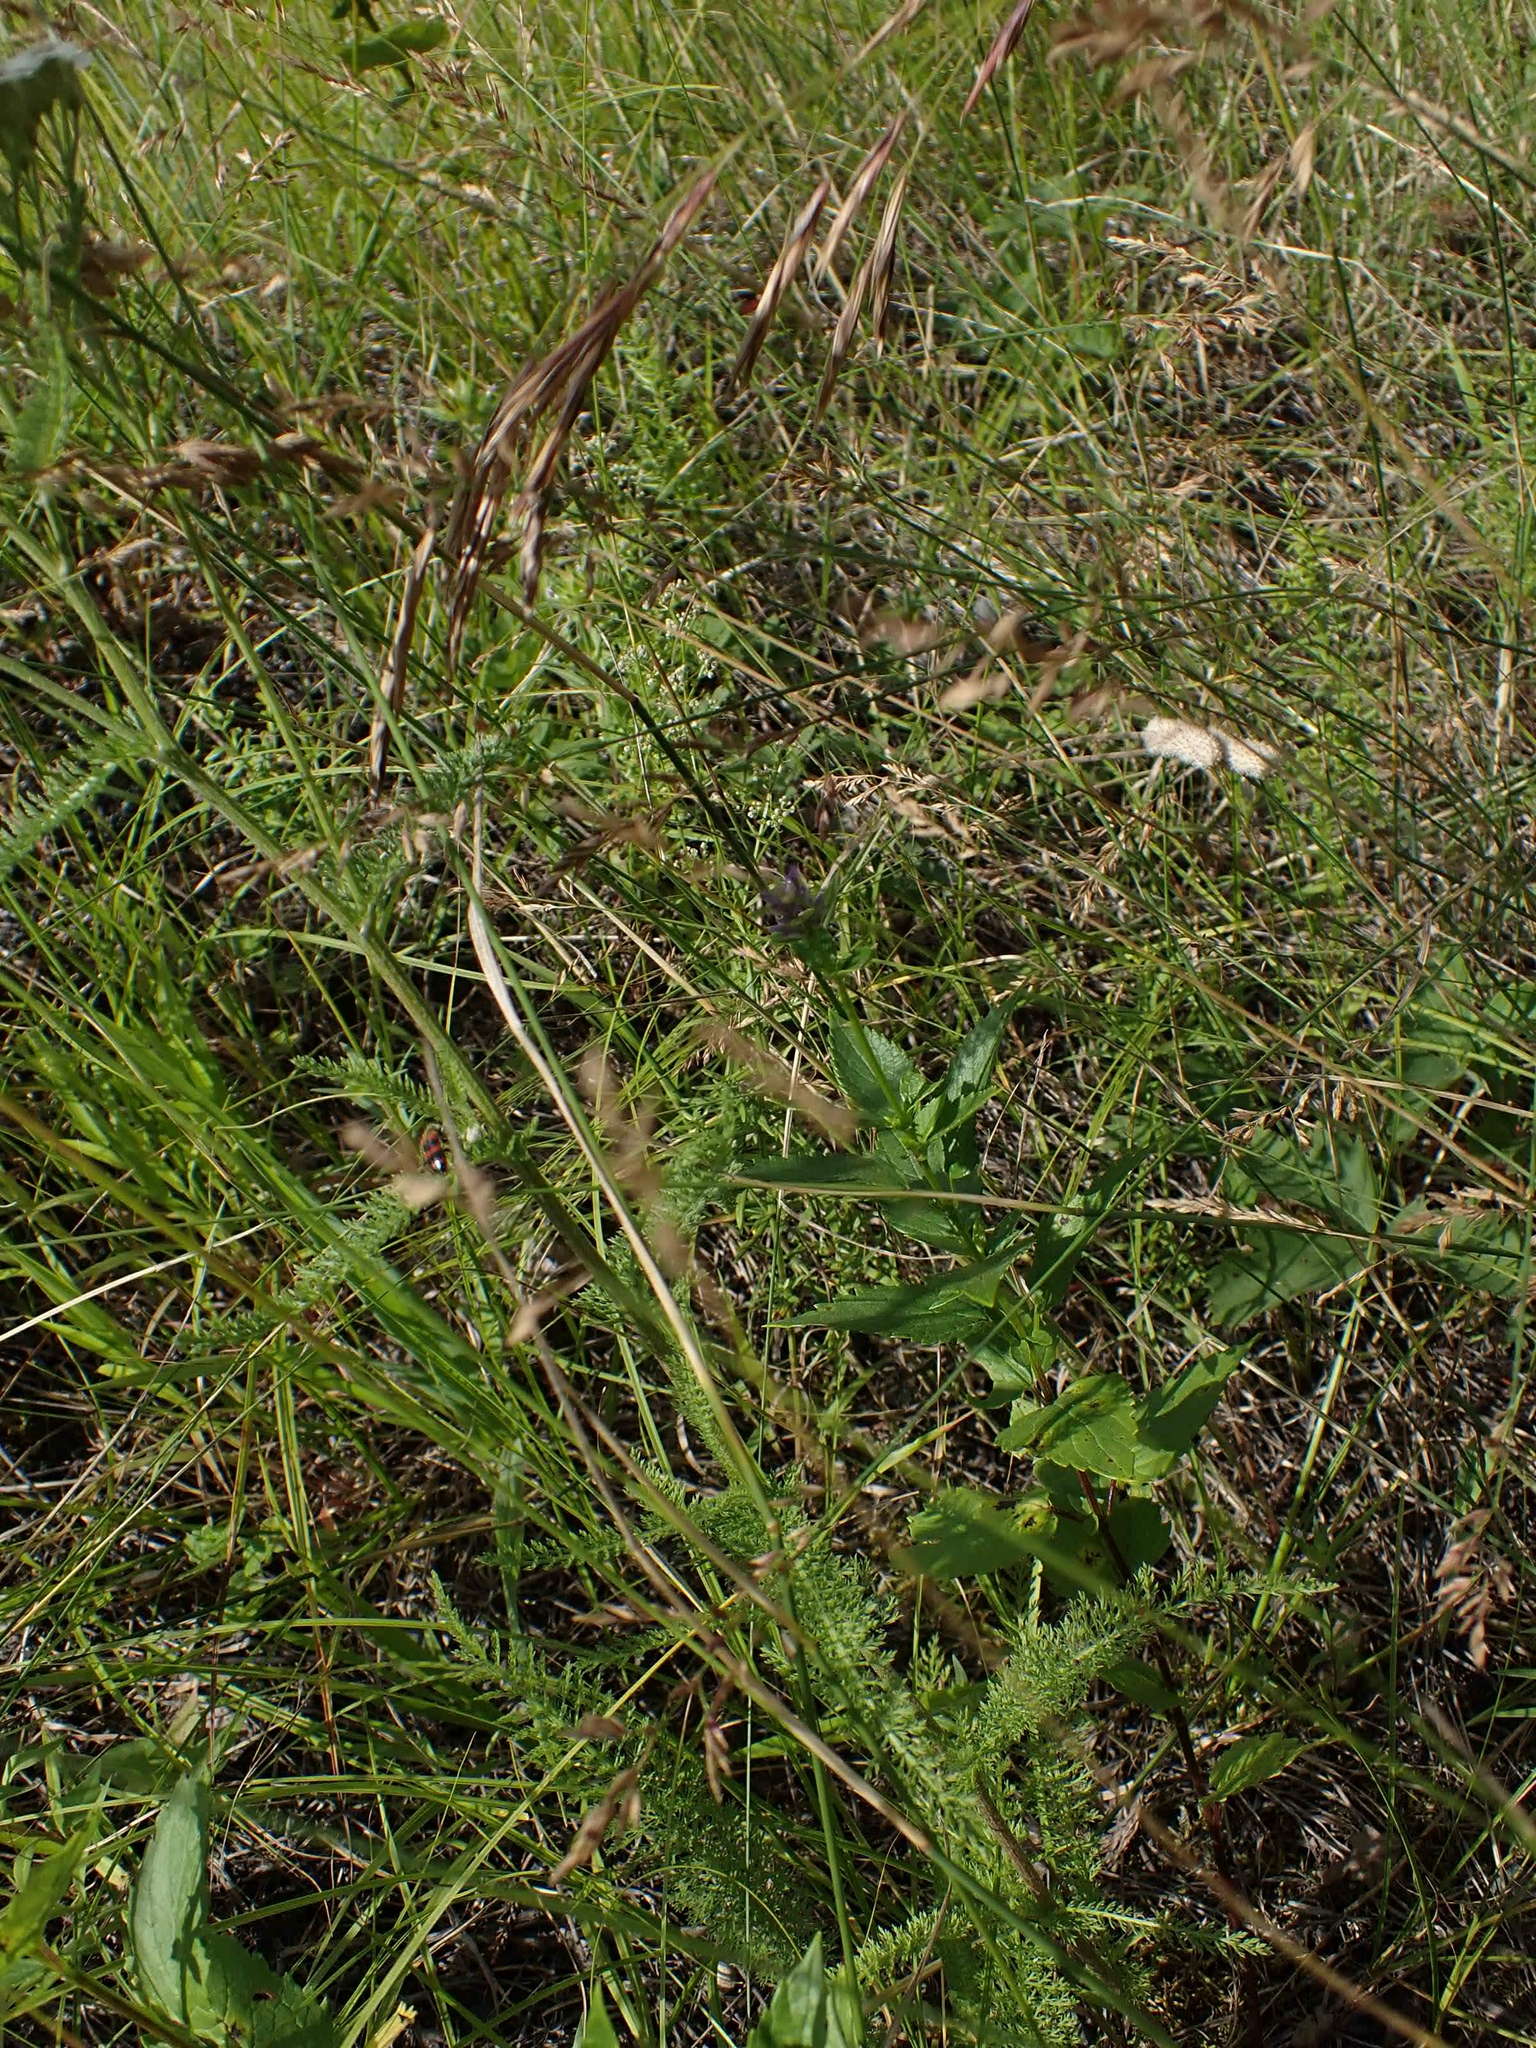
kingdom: Plantae
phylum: Tracheophyta
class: Magnoliopsida
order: Asterales
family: Asteraceae
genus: Achillea
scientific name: Achillea millefolium
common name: Yarrow
